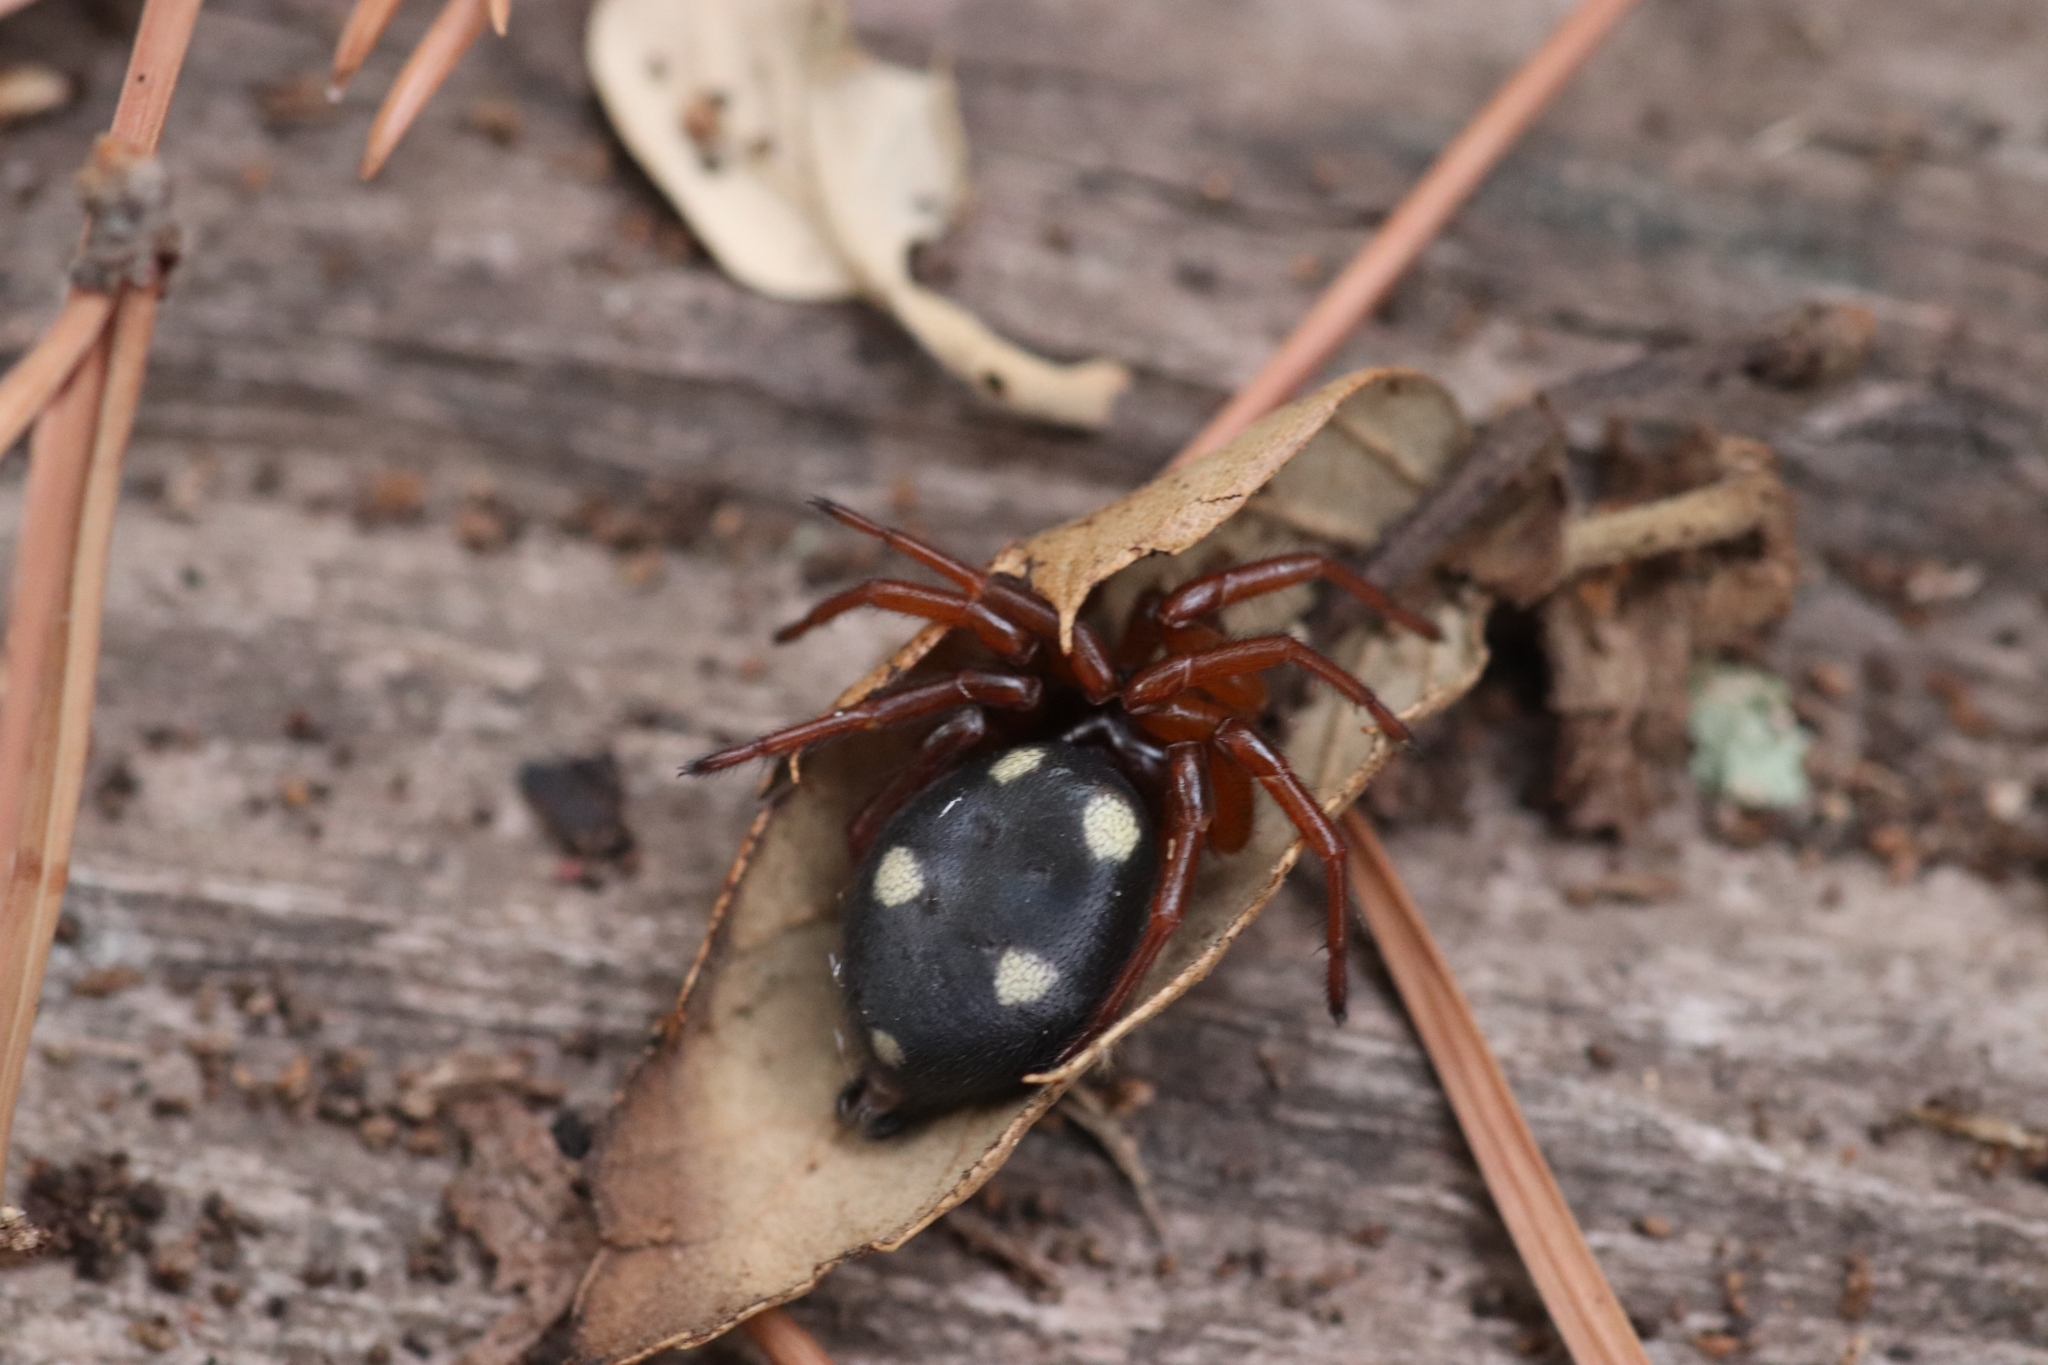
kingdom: Animalia
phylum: Arthropoda
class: Arachnida
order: Araneae
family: Oecobiidae
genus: Uroctea
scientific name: Uroctea durandi
